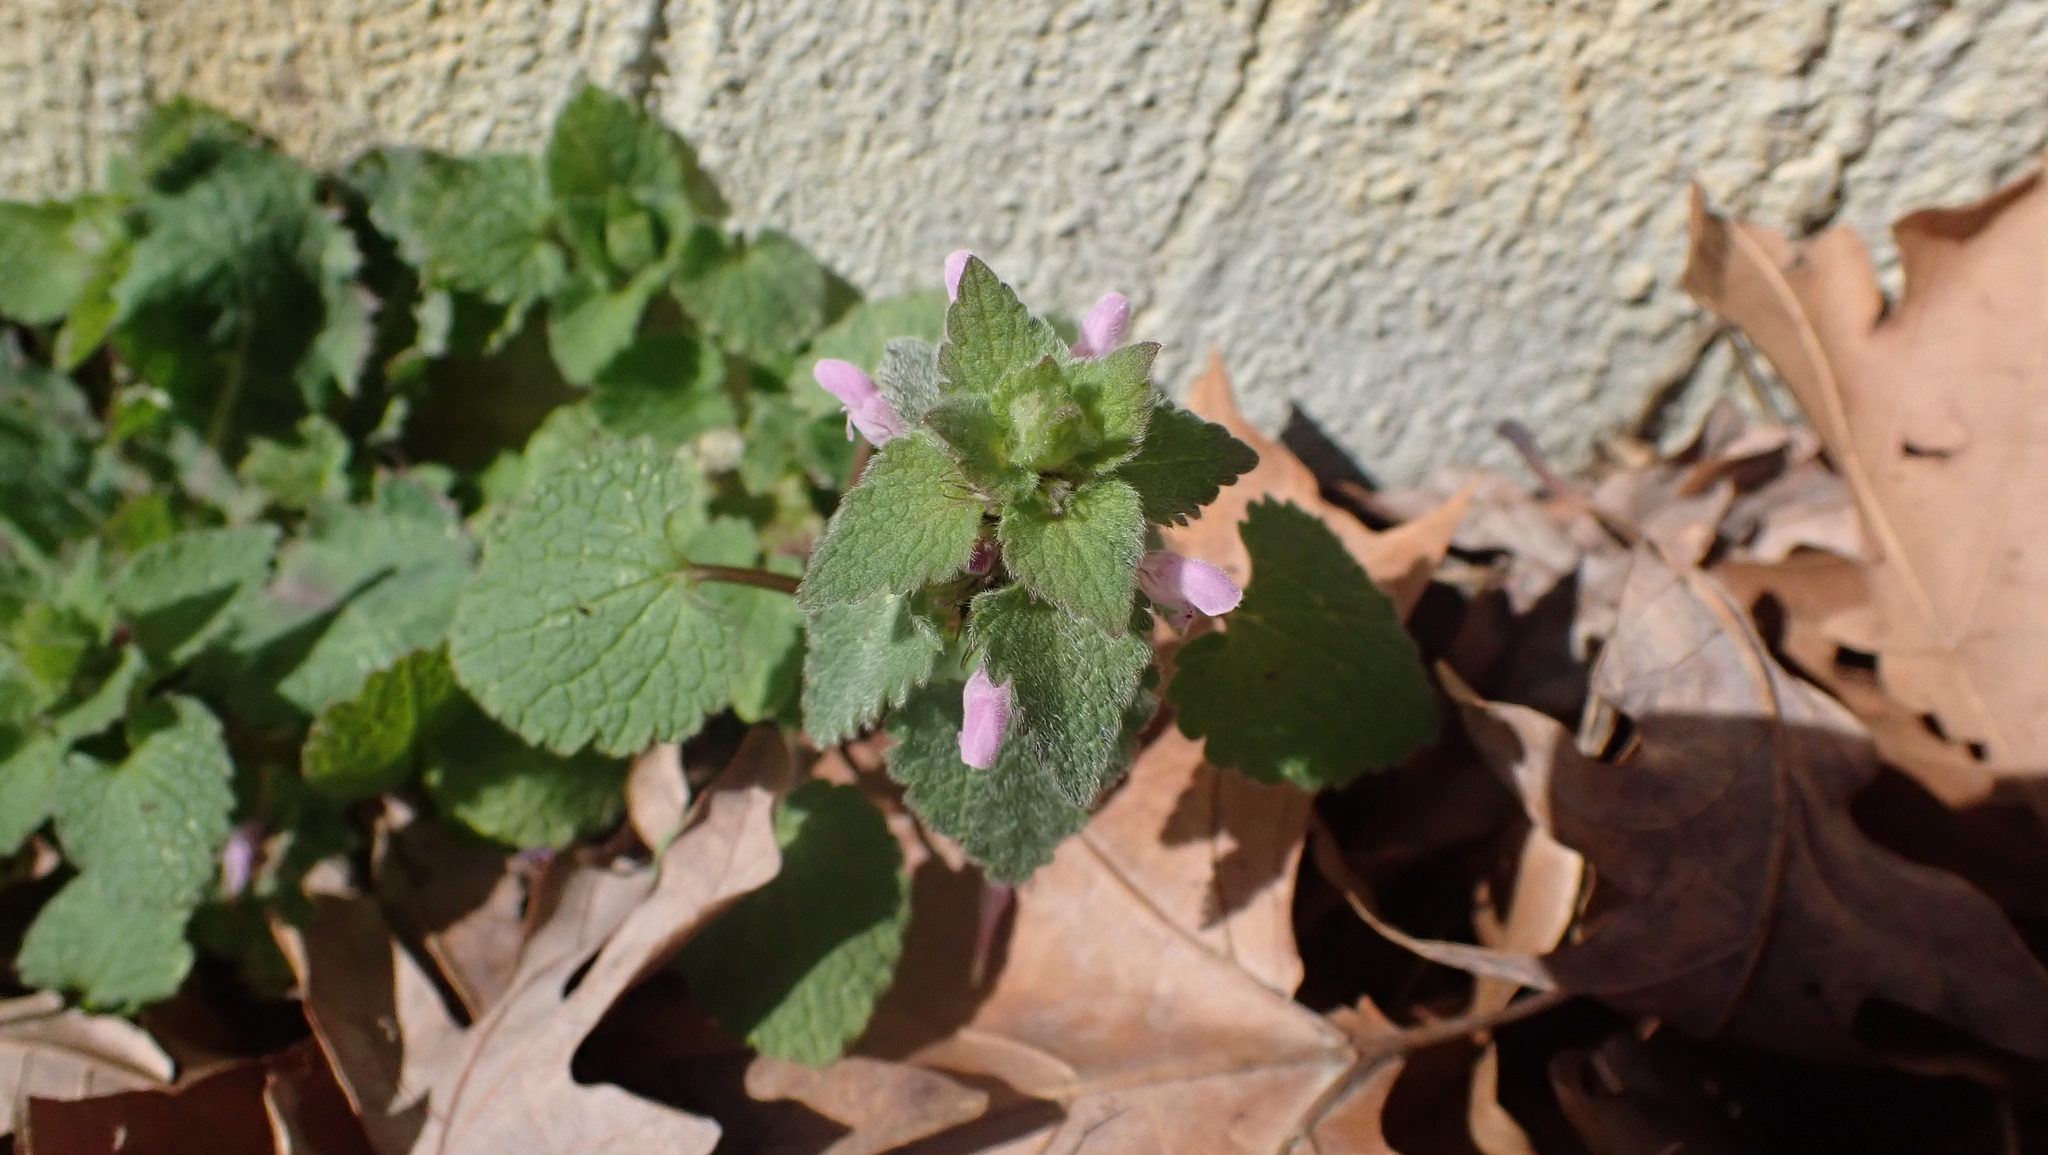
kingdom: Plantae
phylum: Tracheophyta
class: Magnoliopsida
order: Lamiales
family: Lamiaceae
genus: Lamium
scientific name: Lamium purpureum
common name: Red dead-nettle
